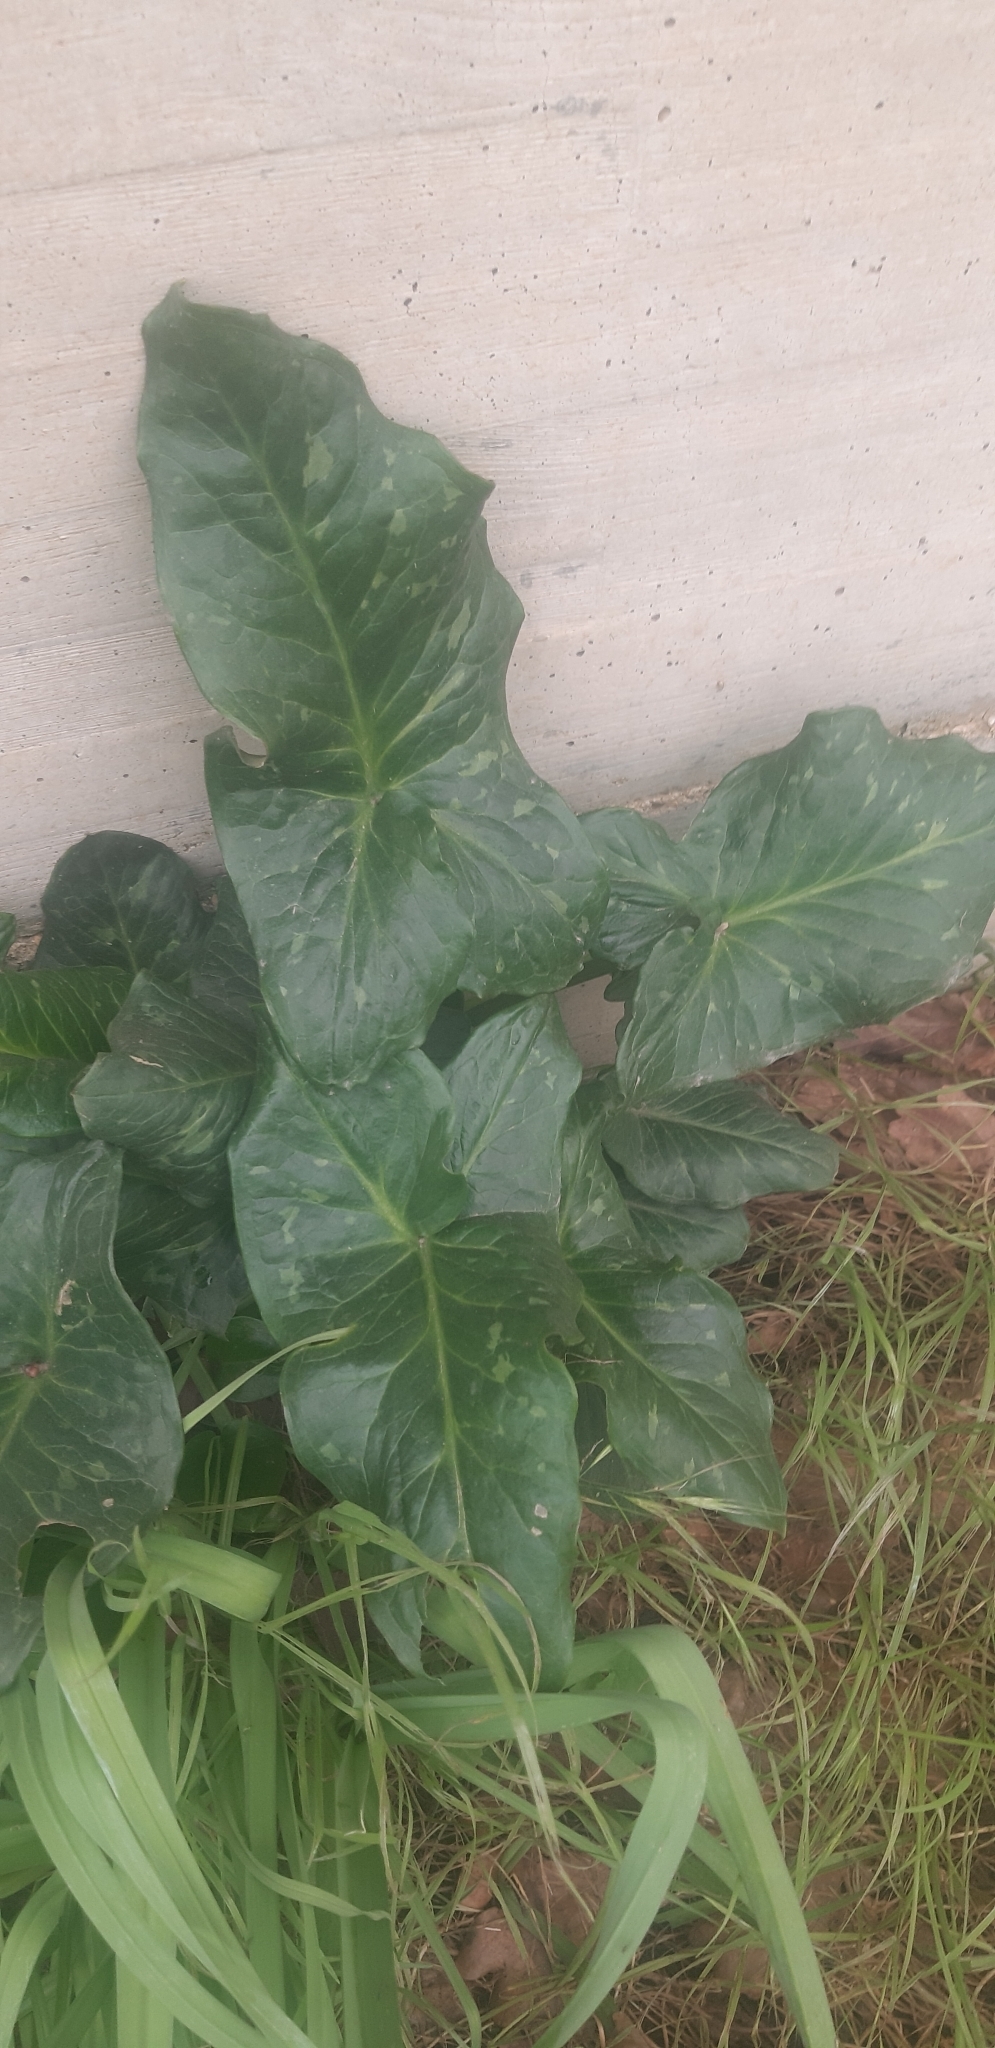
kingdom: Plantae
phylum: Tracheophyta
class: Liliopsida
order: Alismatales
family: Araceae
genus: Arum
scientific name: Arum italicum
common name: Italian lords-and-ladies
